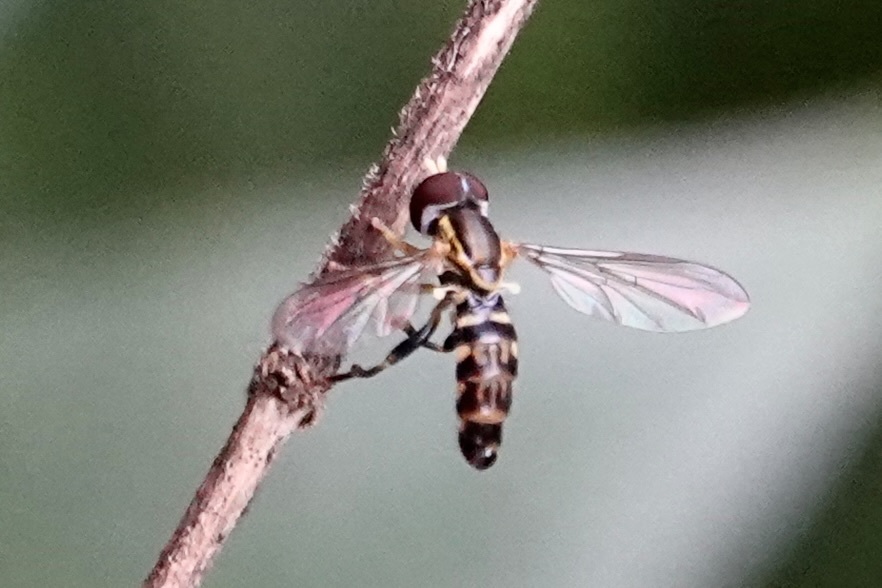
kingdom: Animalia
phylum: Arthropoda
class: Insecta
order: Diptera
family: Syrphidae
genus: Toxomerus
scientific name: Toxomerus geminatus
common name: Eastern calligrapher
